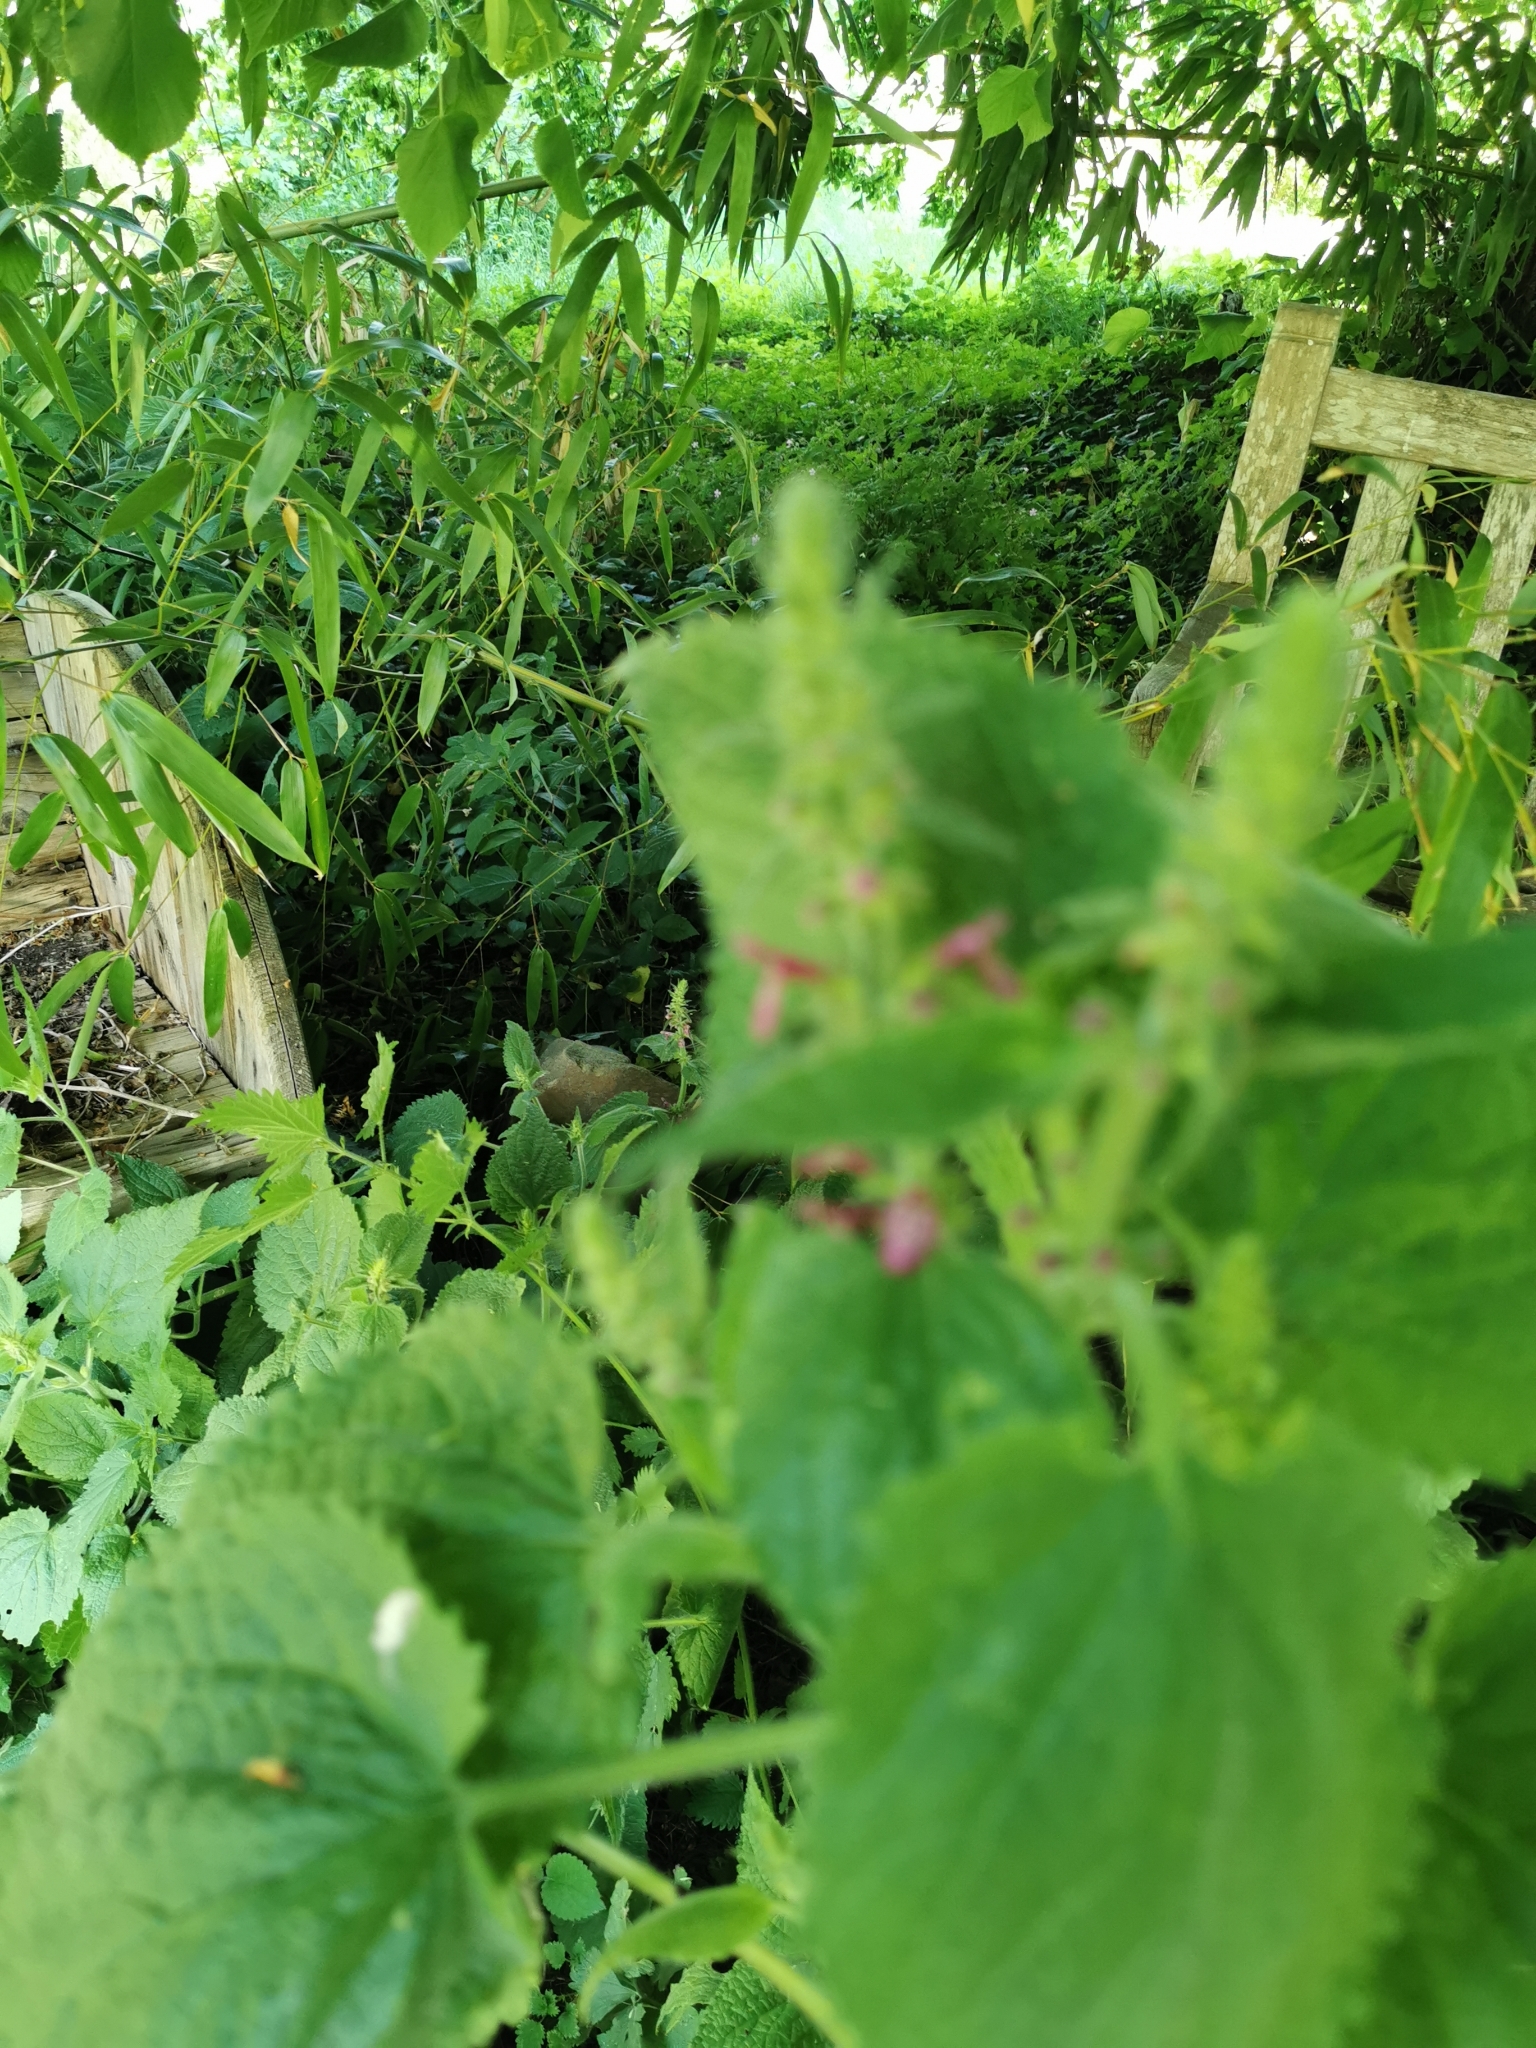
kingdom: Plantae
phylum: Tracheophyta
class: Magnoliopsida
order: Lamiales
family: Lamiaceae
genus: Stachys
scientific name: Stachys sylvatica
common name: Hedge woundwort
